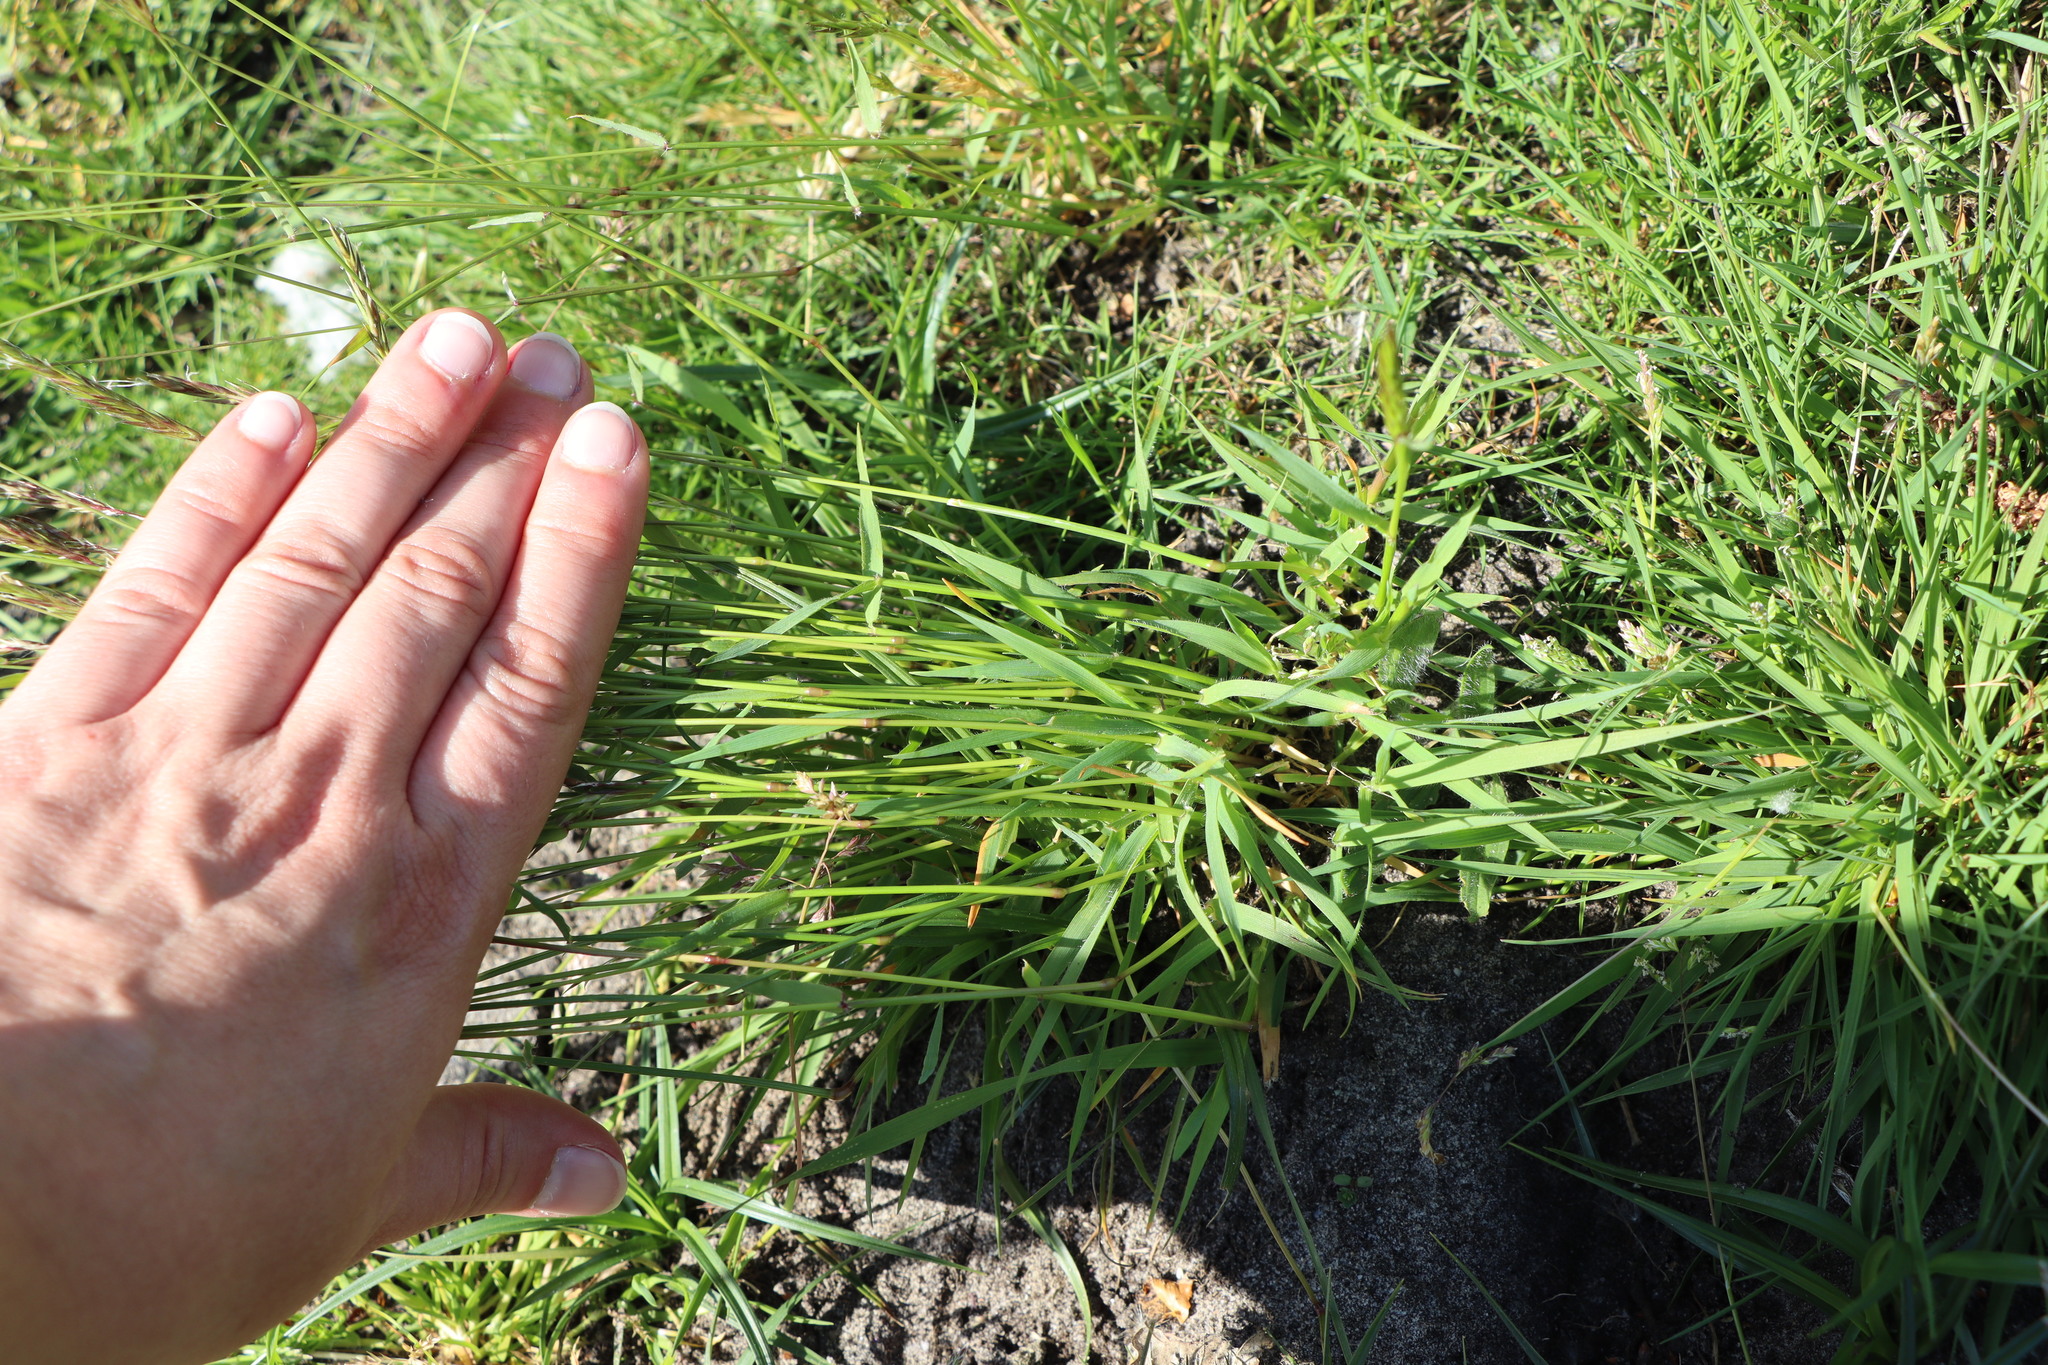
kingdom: Plantae
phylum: Tracheophyta
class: Liliopsida
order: Poales
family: Poaceae
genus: Anthoxanthum
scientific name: Anthoxanthum odoratum
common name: Sweet vernalgrass
